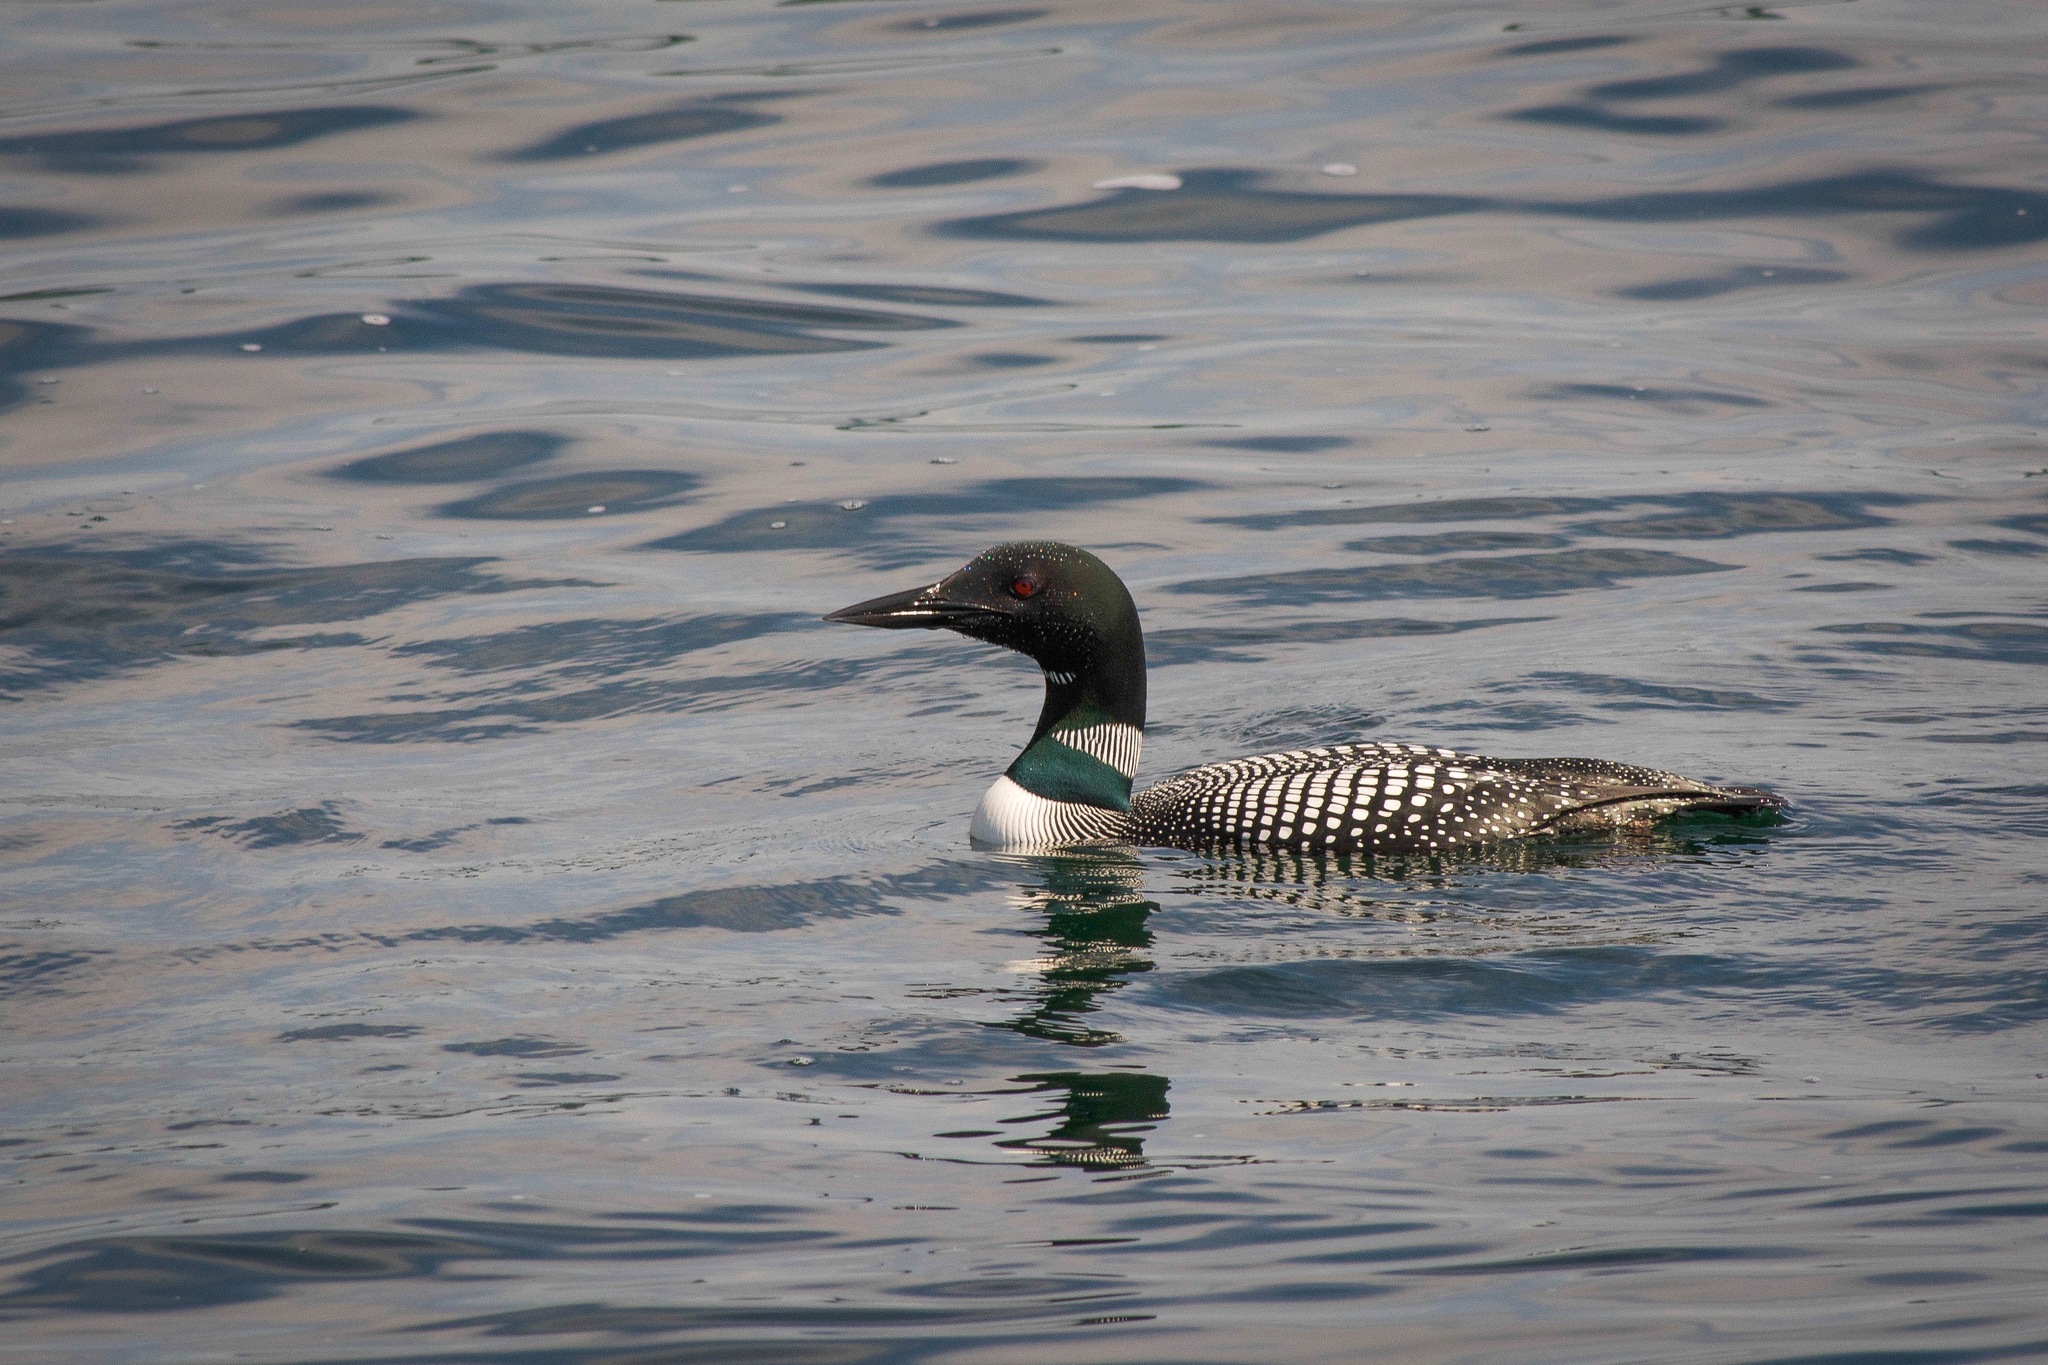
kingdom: Animalia
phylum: Chordata
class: Aves
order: Gaviiformes
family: Gaviidae
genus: Gavia
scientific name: Gavia immer
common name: Common loon
